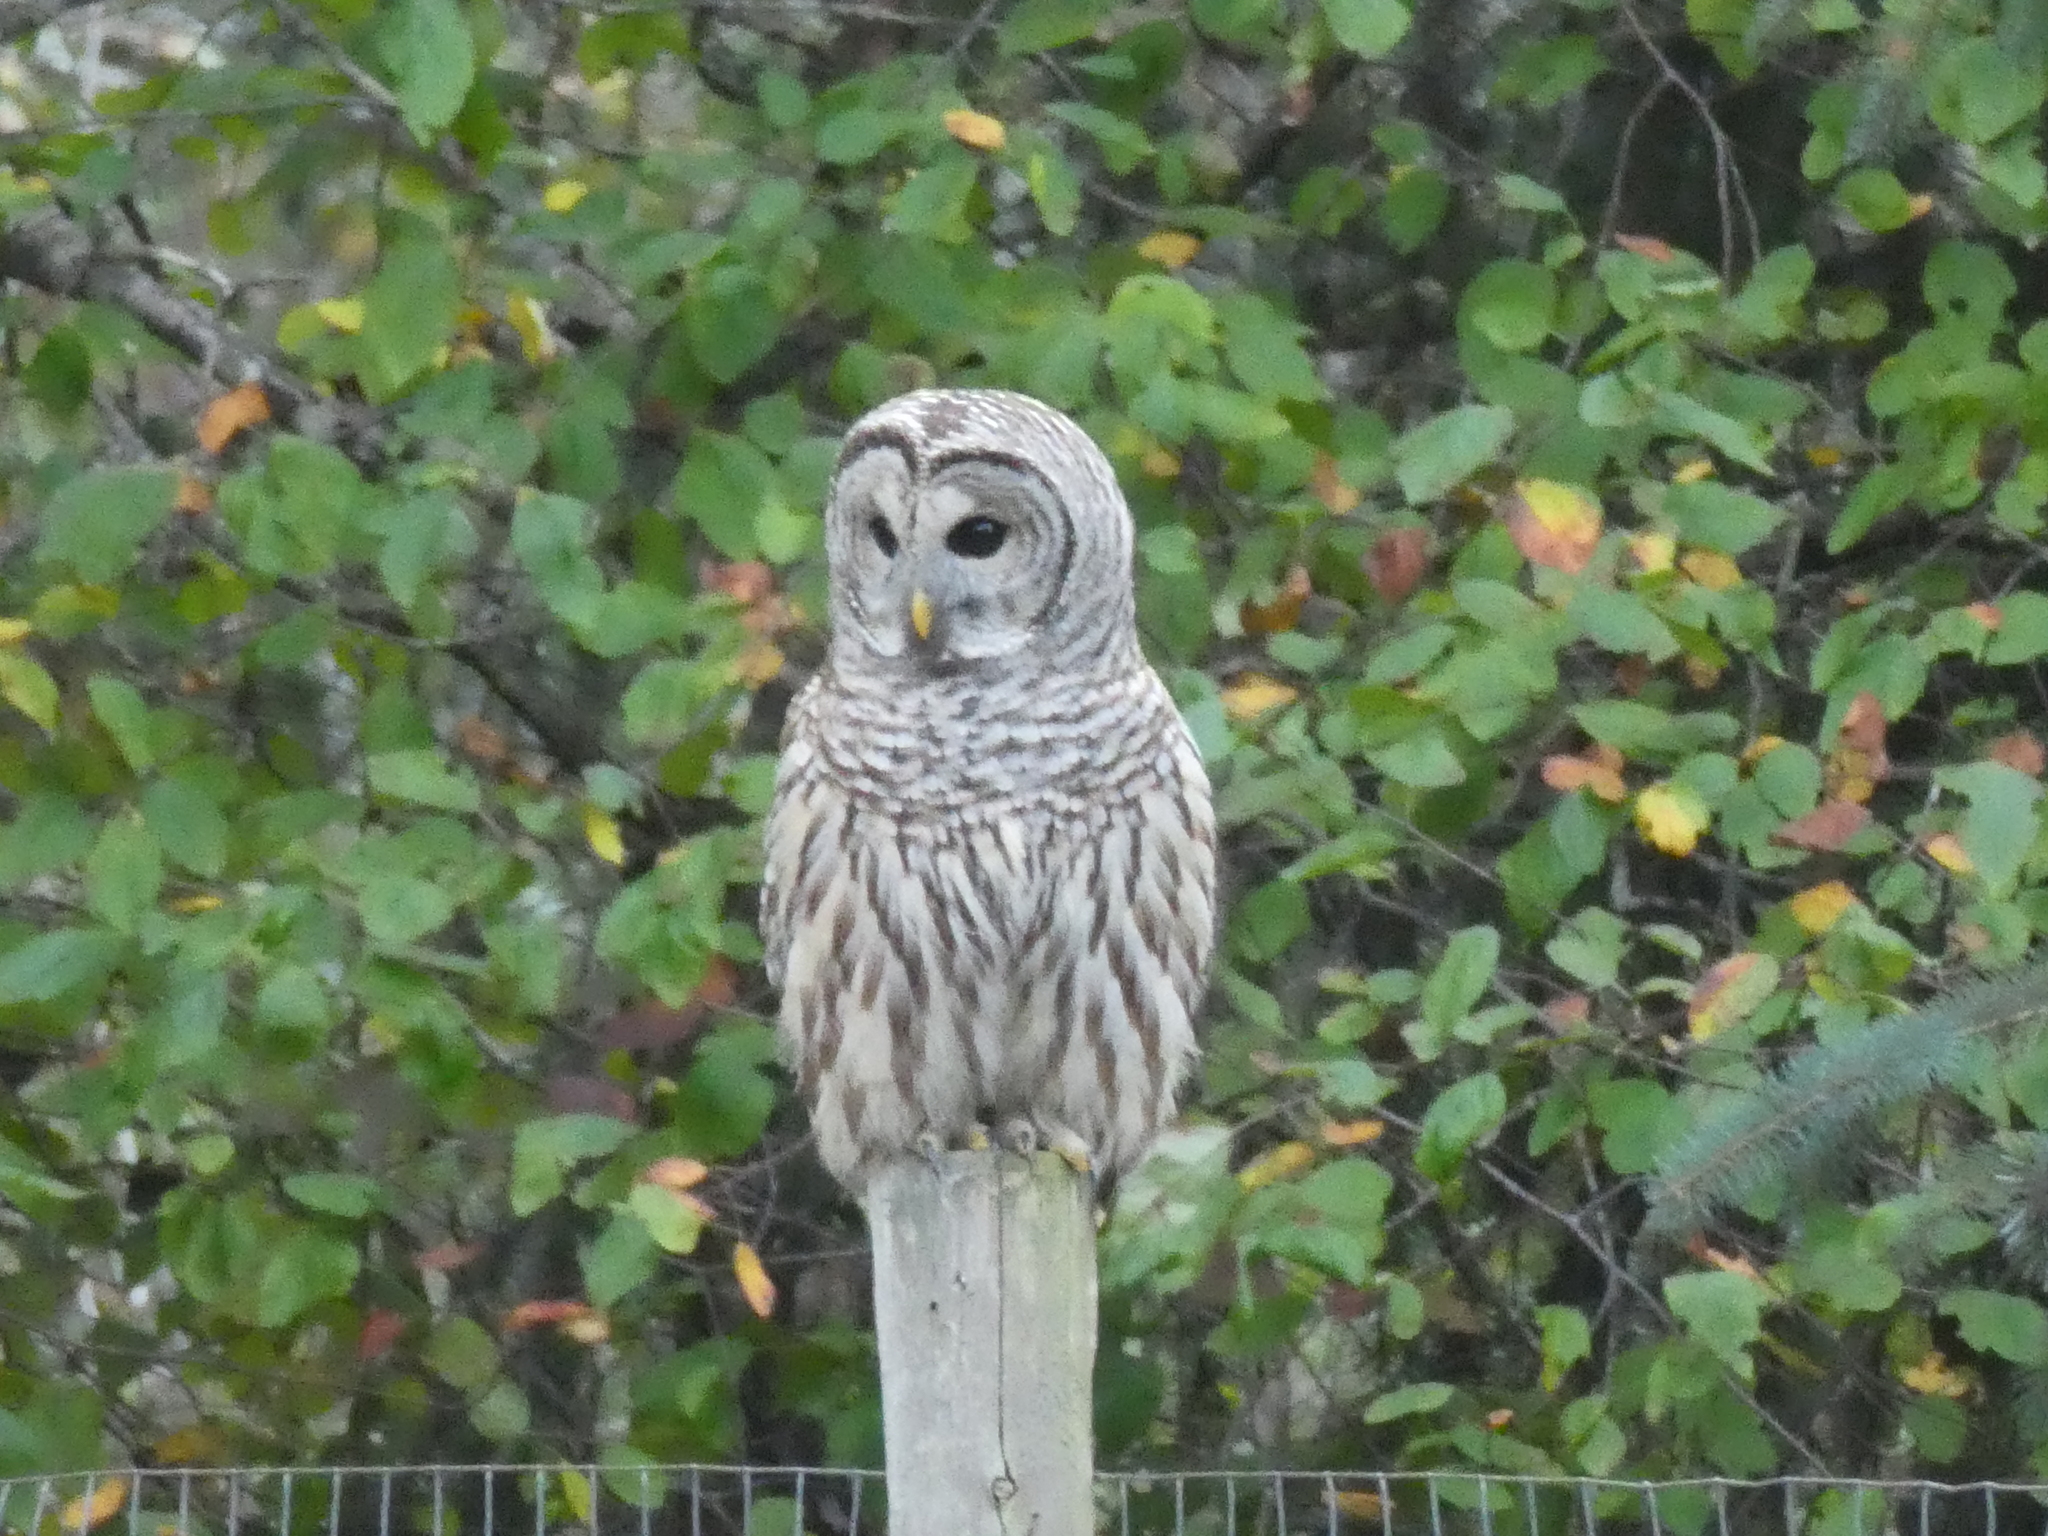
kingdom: Animalia
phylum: Chordata
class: Aves
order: Strigiformes
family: Strigidae
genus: Strix
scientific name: Strix varia
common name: Barred owl
